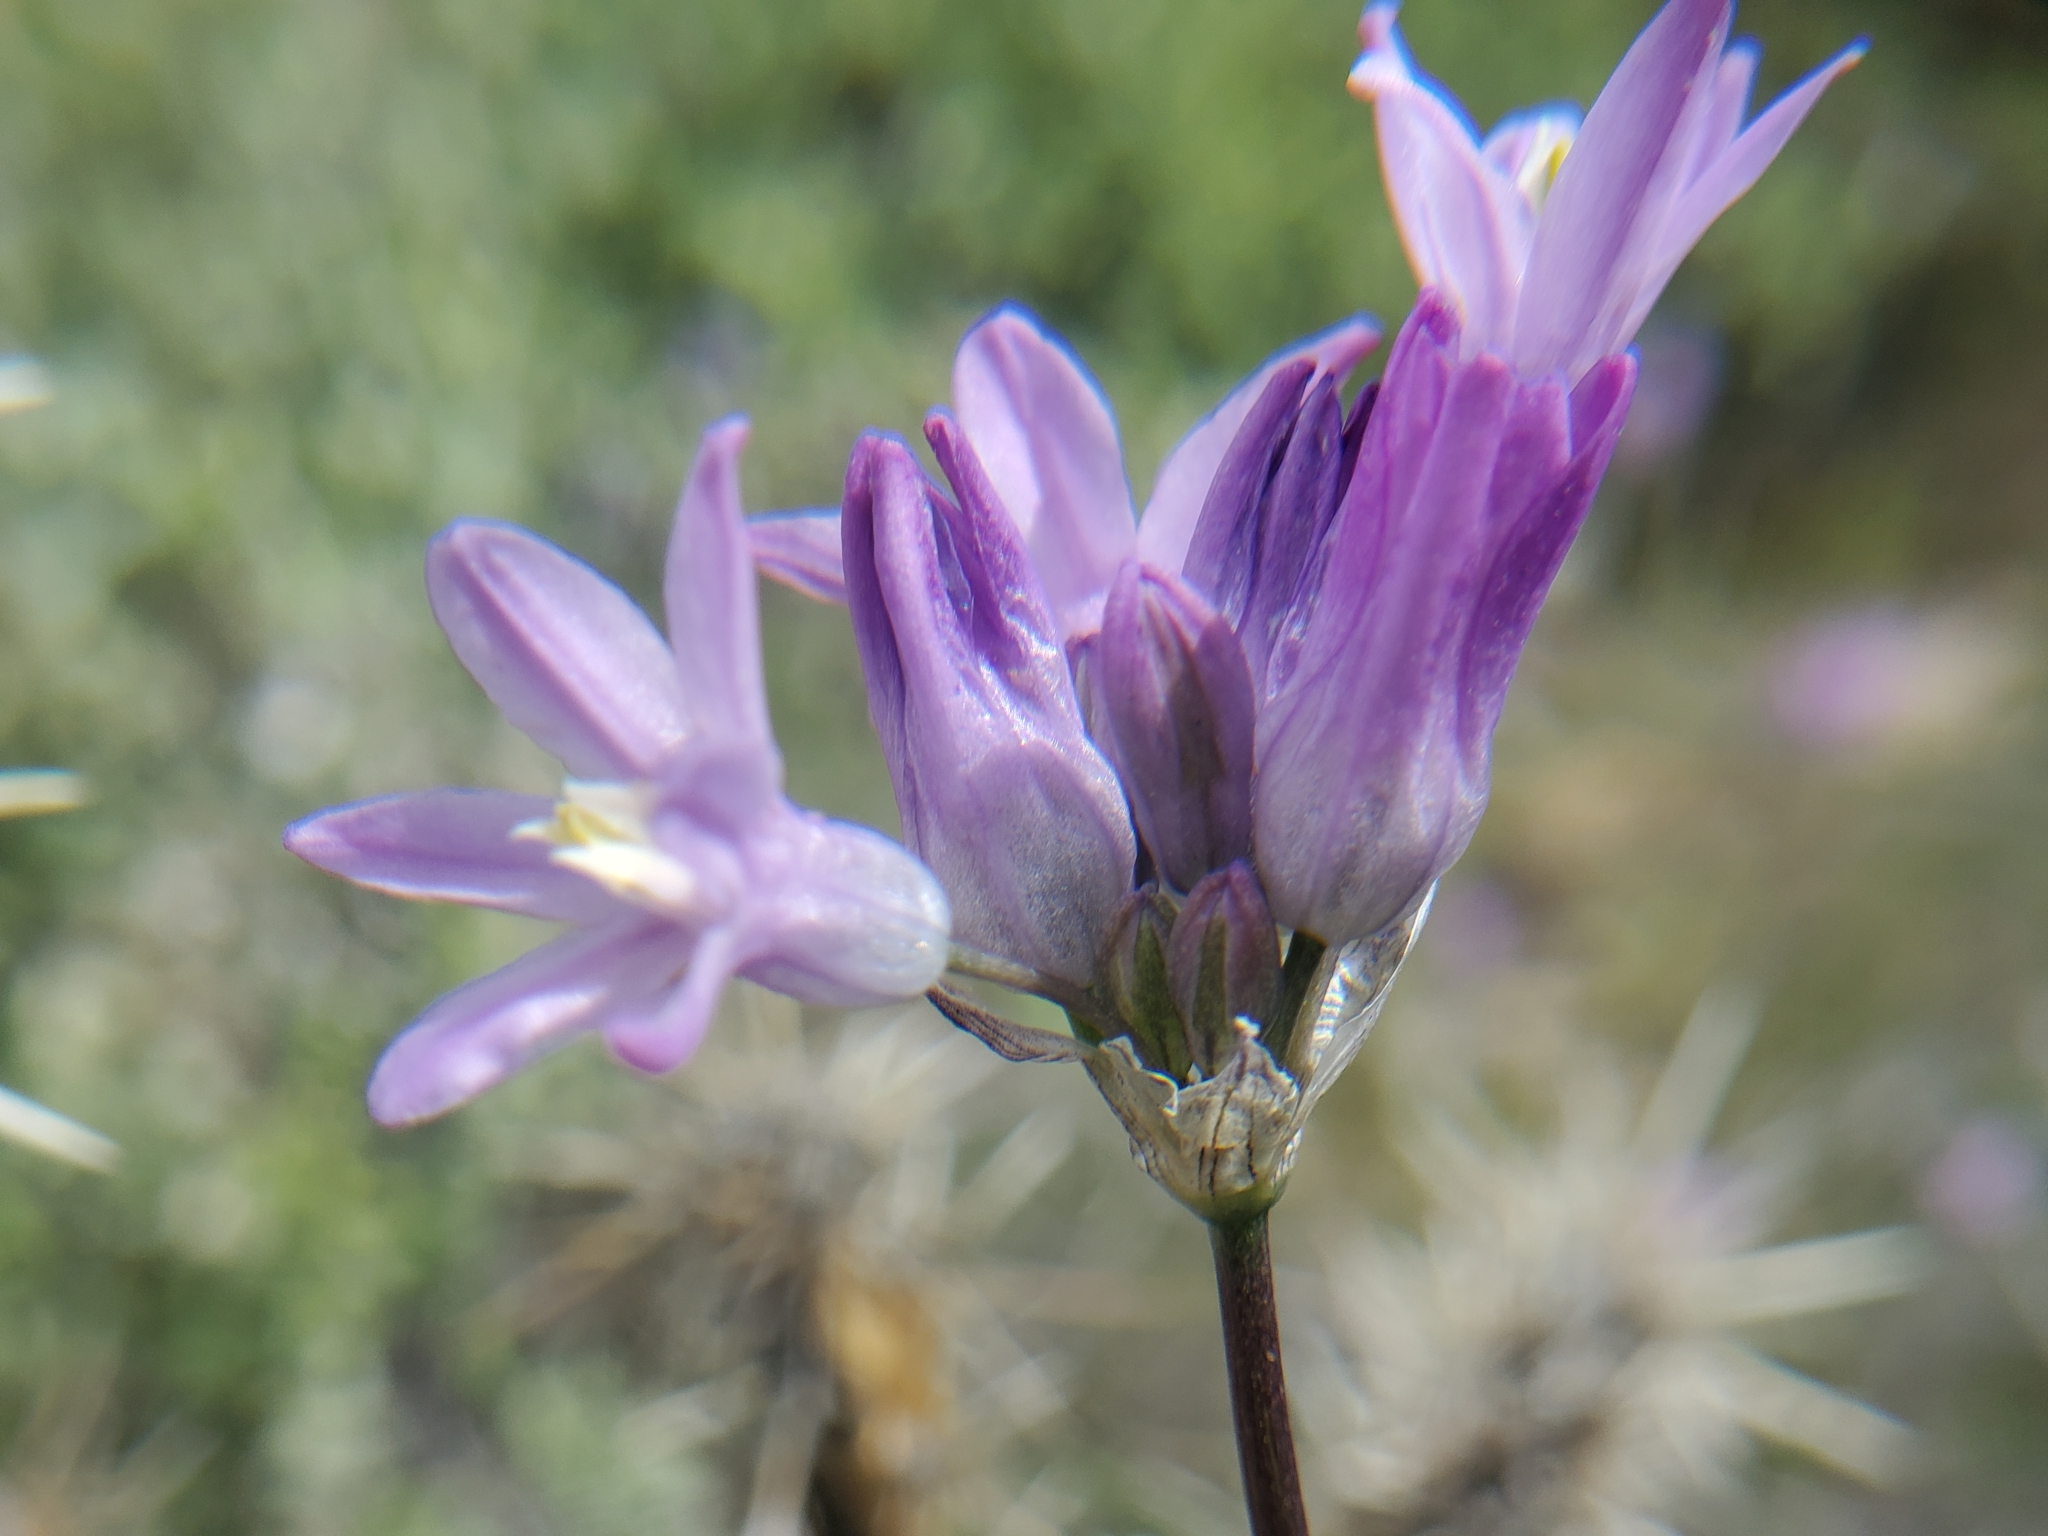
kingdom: Plantae
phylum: Tracheophyta
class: Liliopsida
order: Asparagales
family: Asparagaceae
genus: Dipterostemon
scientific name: Dipterostemon capitatus
